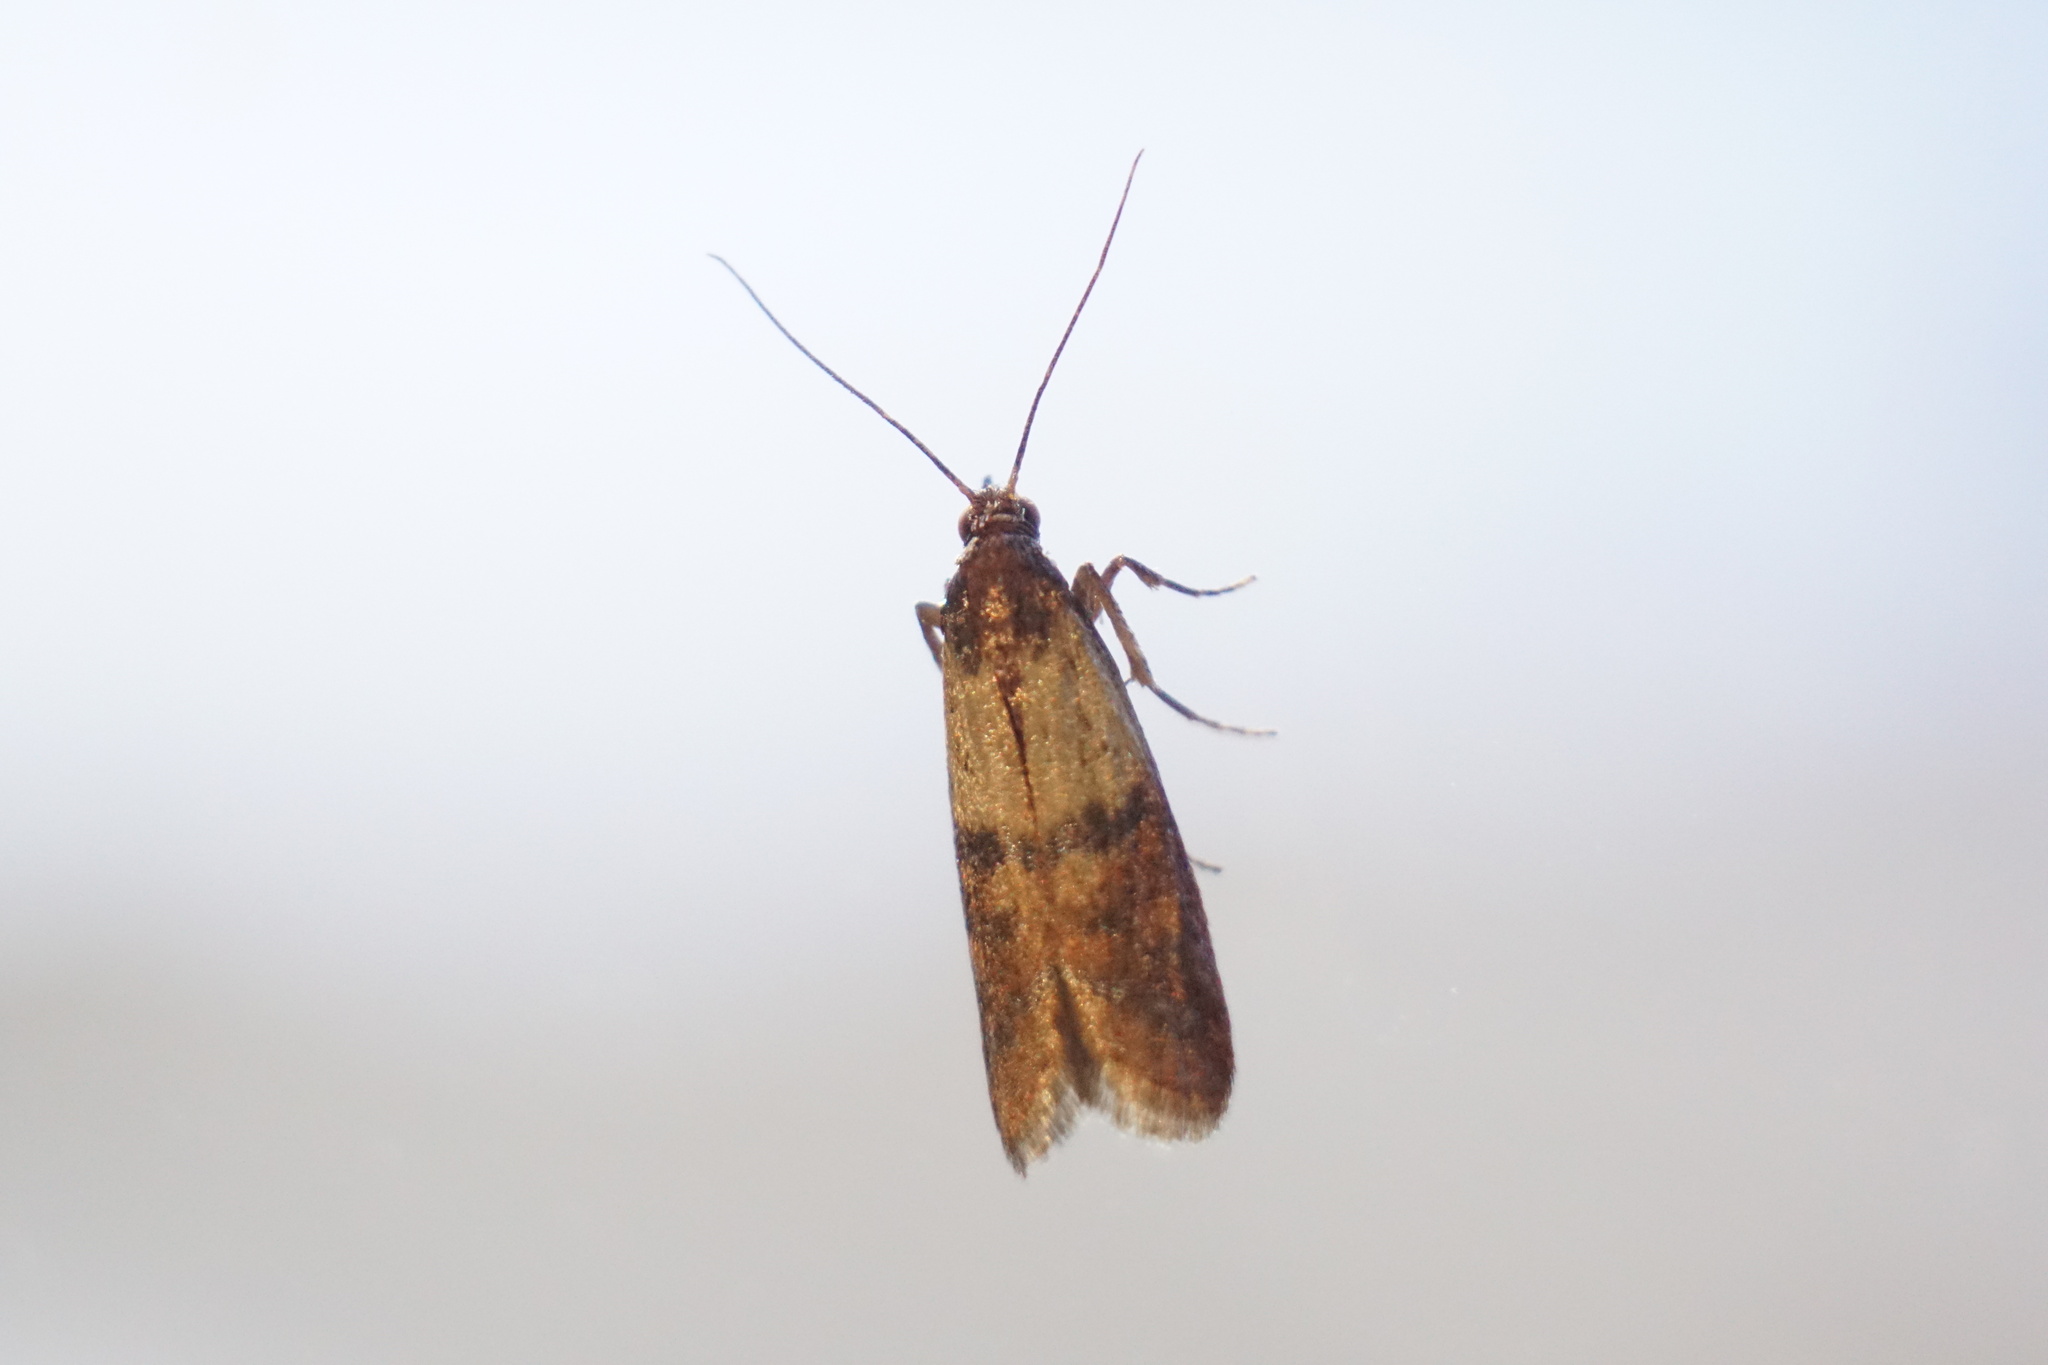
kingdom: Animalia
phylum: Arthropoda
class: Insecta
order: Lepidoptera
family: Pyralidae
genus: Plodia
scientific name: Plodia interpunctella
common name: Indian meal moth
